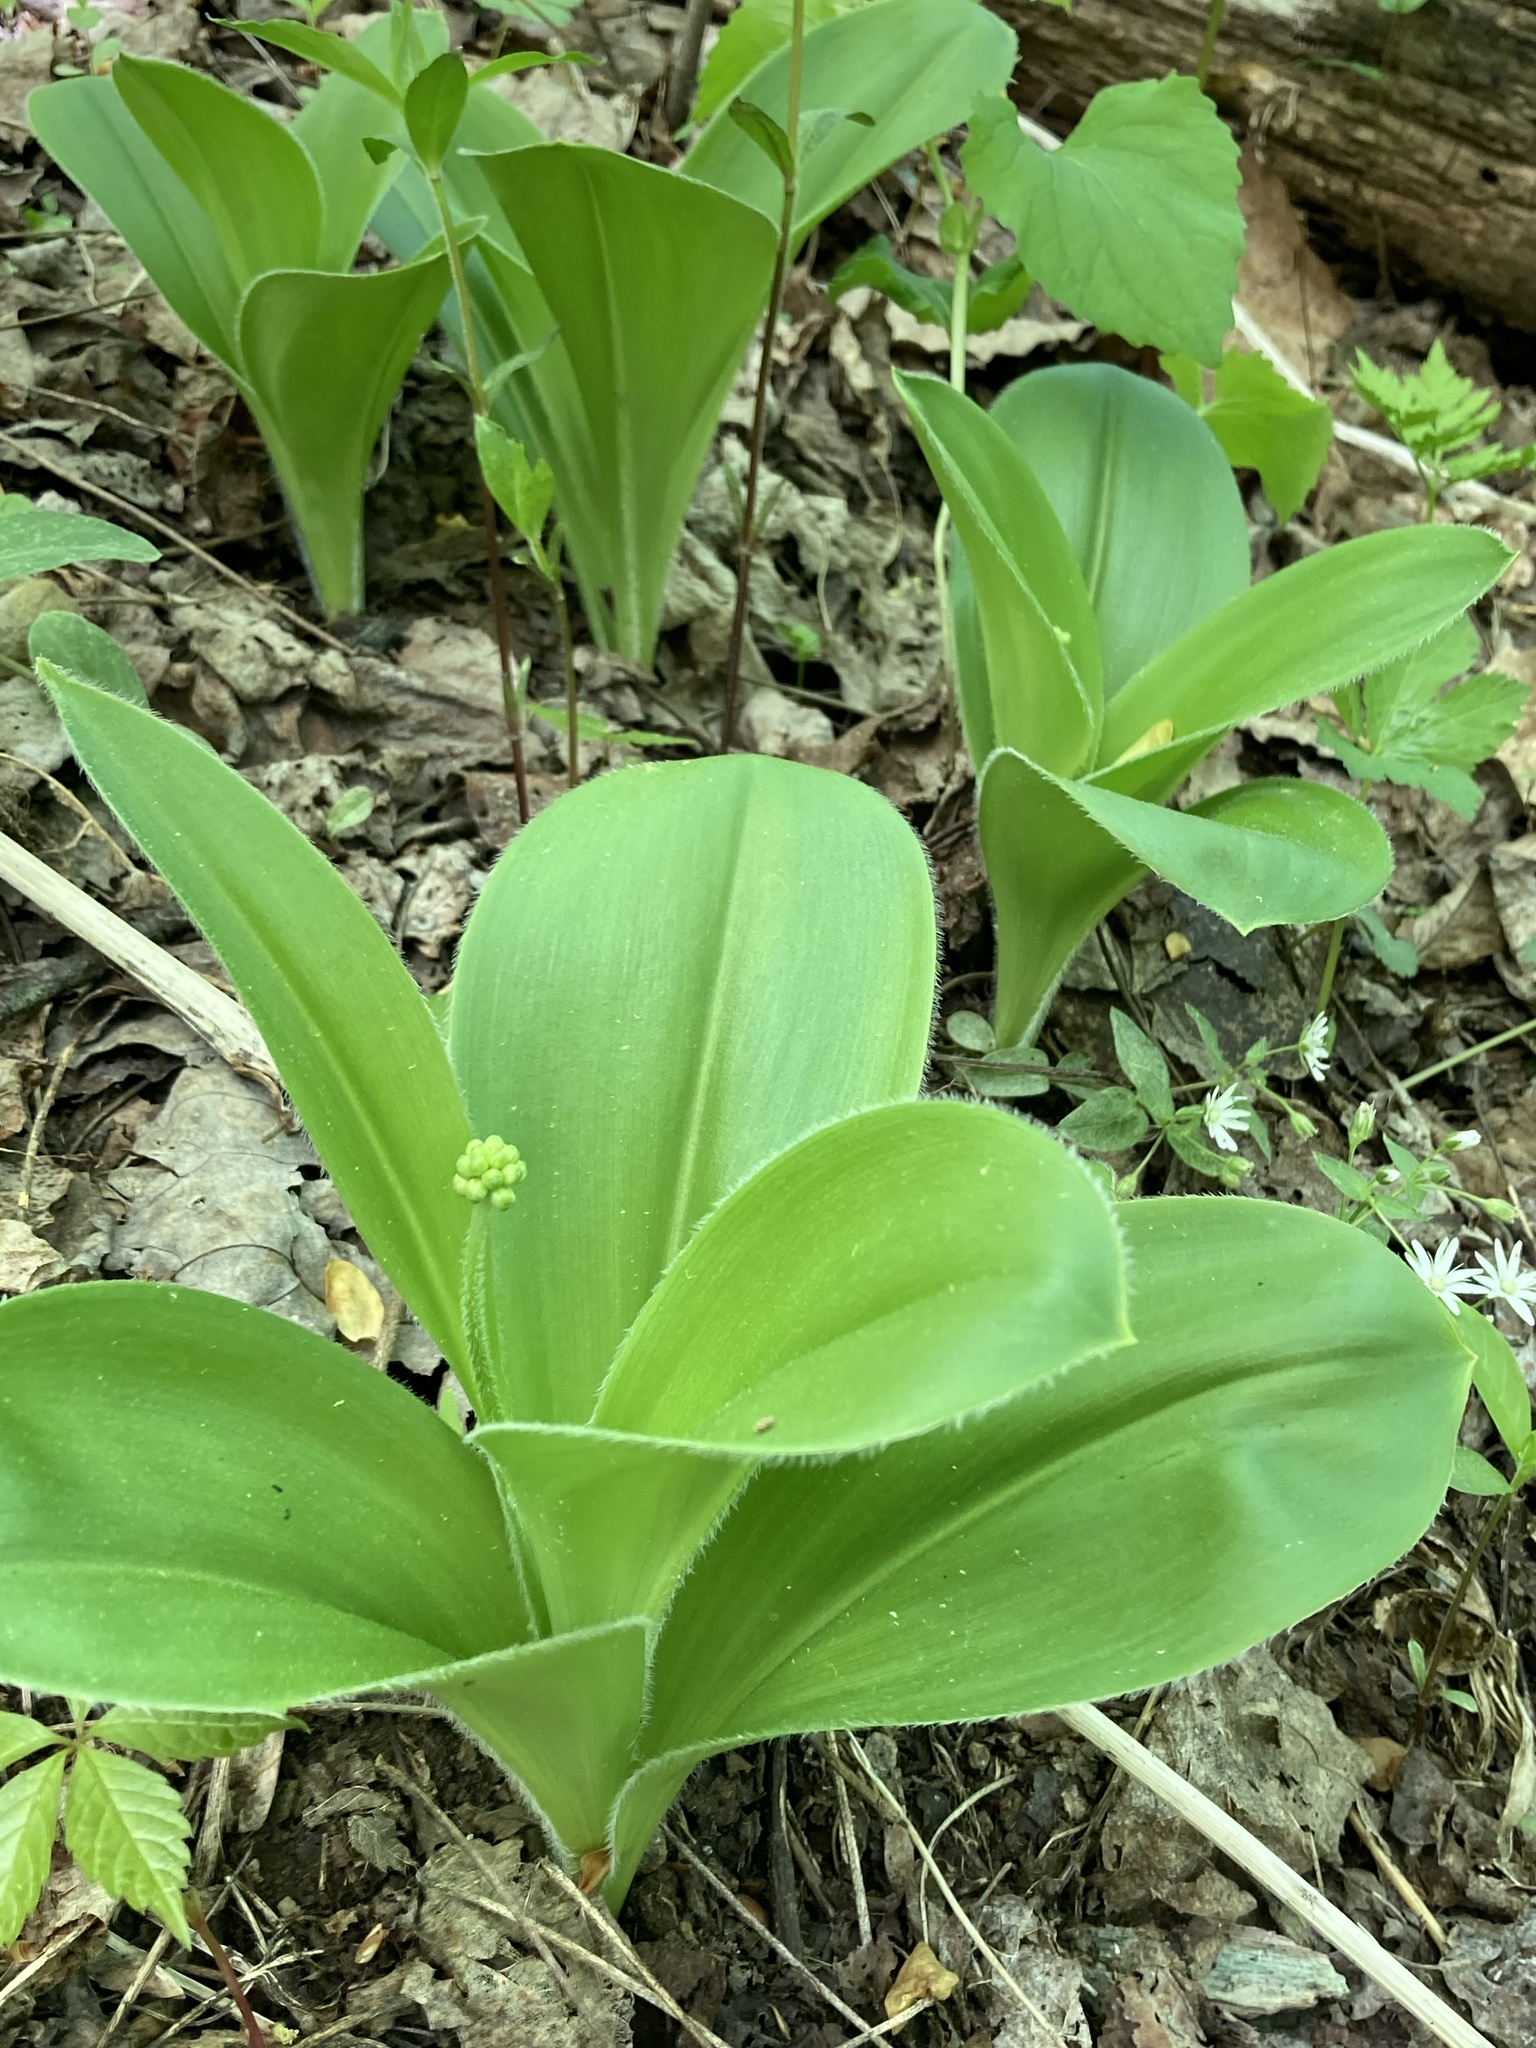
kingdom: Plantae
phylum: Tracheophyta
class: Liliopsida
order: Liliales
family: Liliaceae
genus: Clintonia
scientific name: Clintonia umbellulata
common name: Speckle wood-lily
